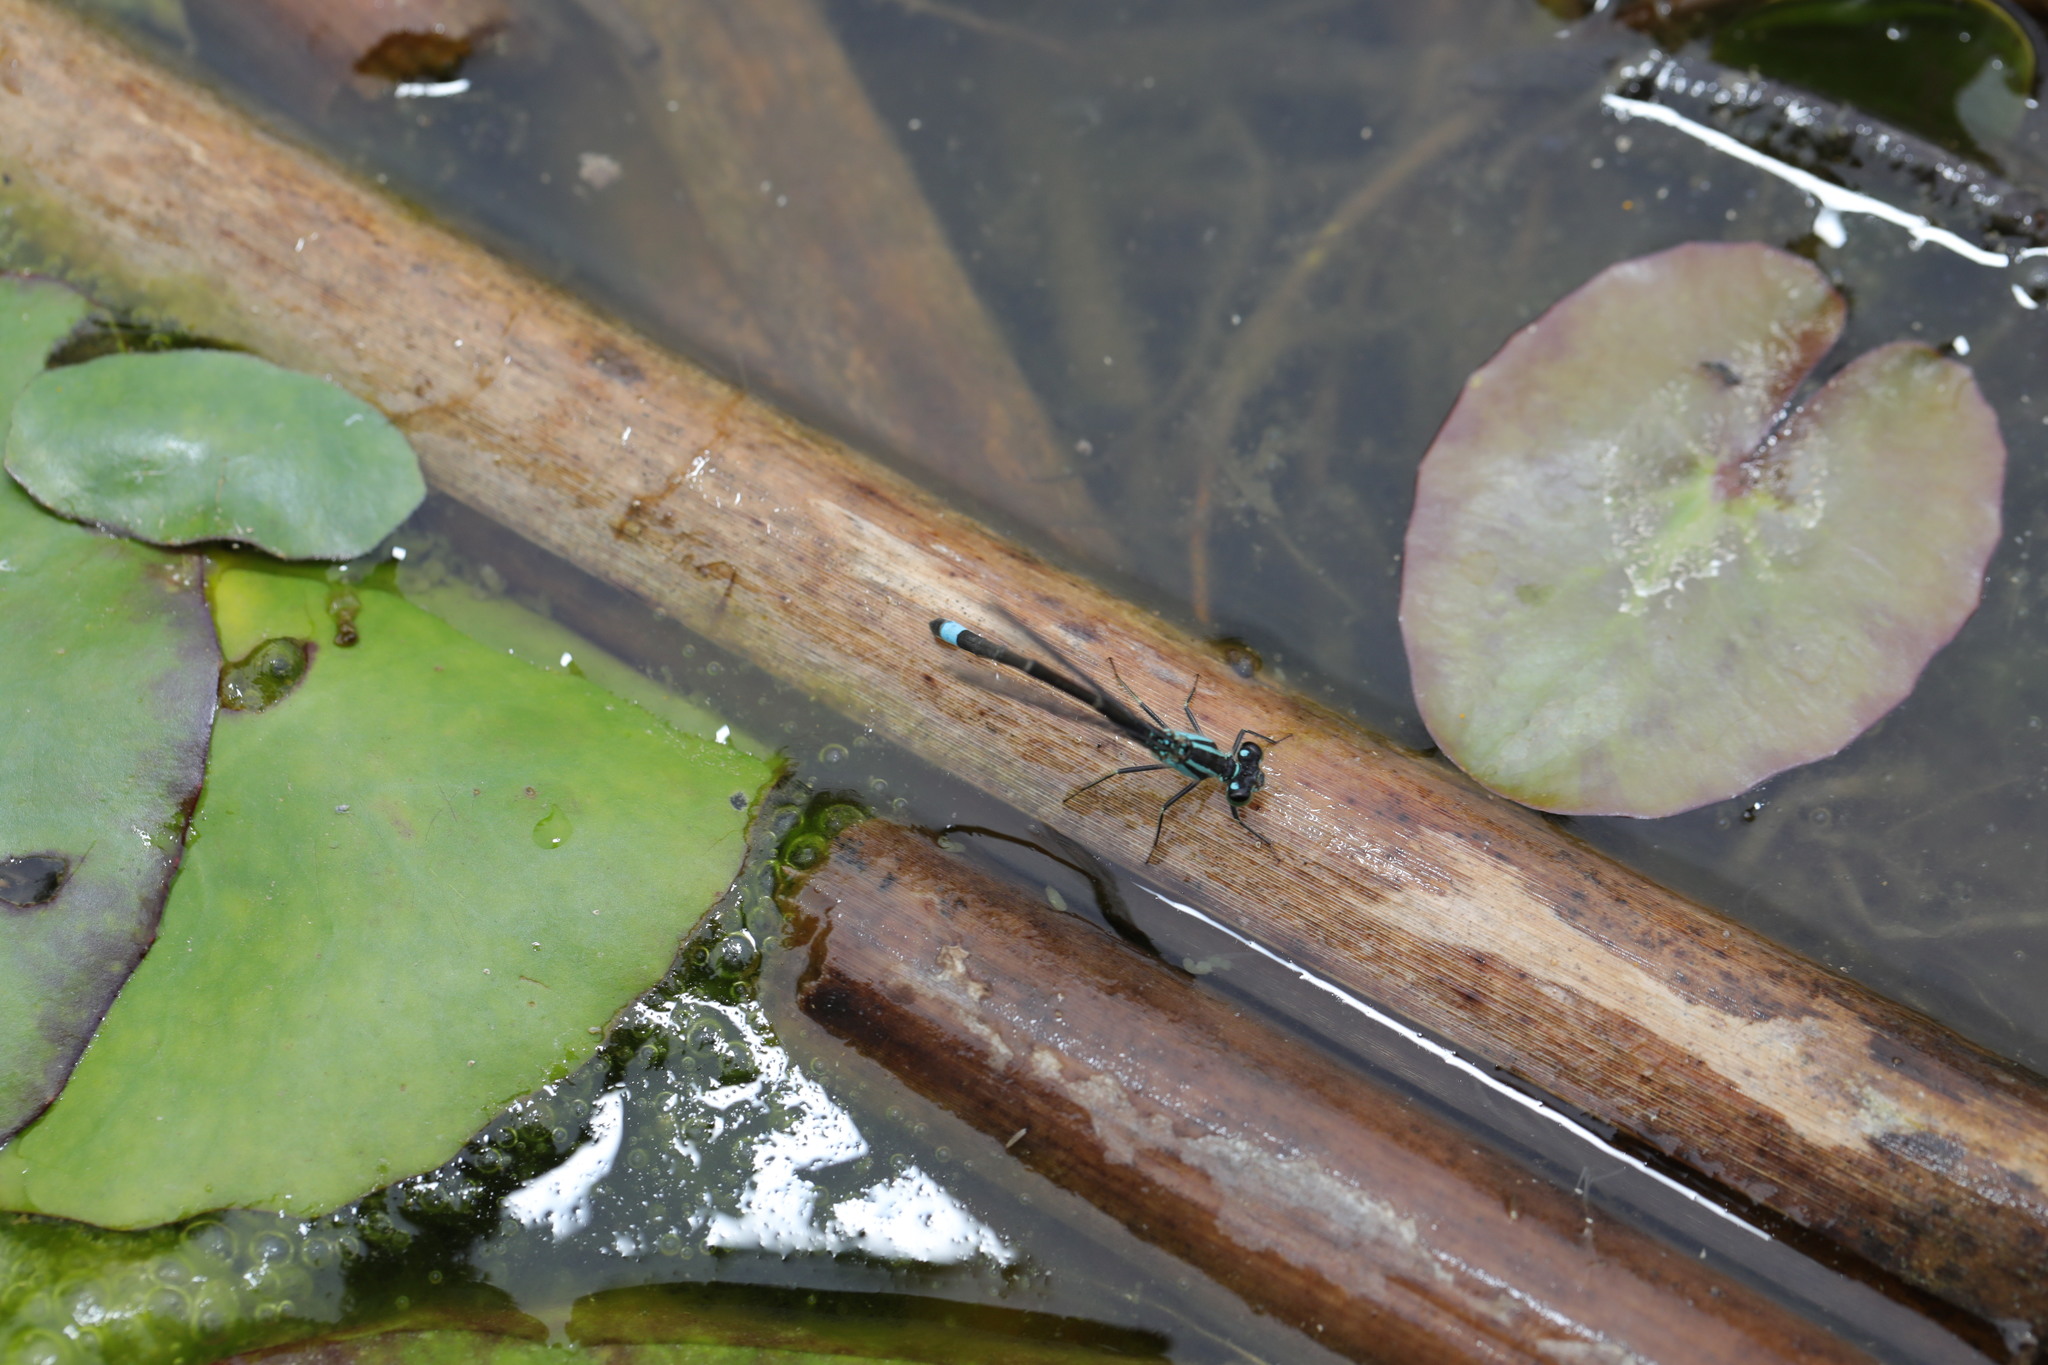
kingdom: Animalia
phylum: Arthropoda
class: Insecta
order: Odonata
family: Coenagrionidae
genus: Ischnura
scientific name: Ischnura elegans
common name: Blue-tailed damselfly
